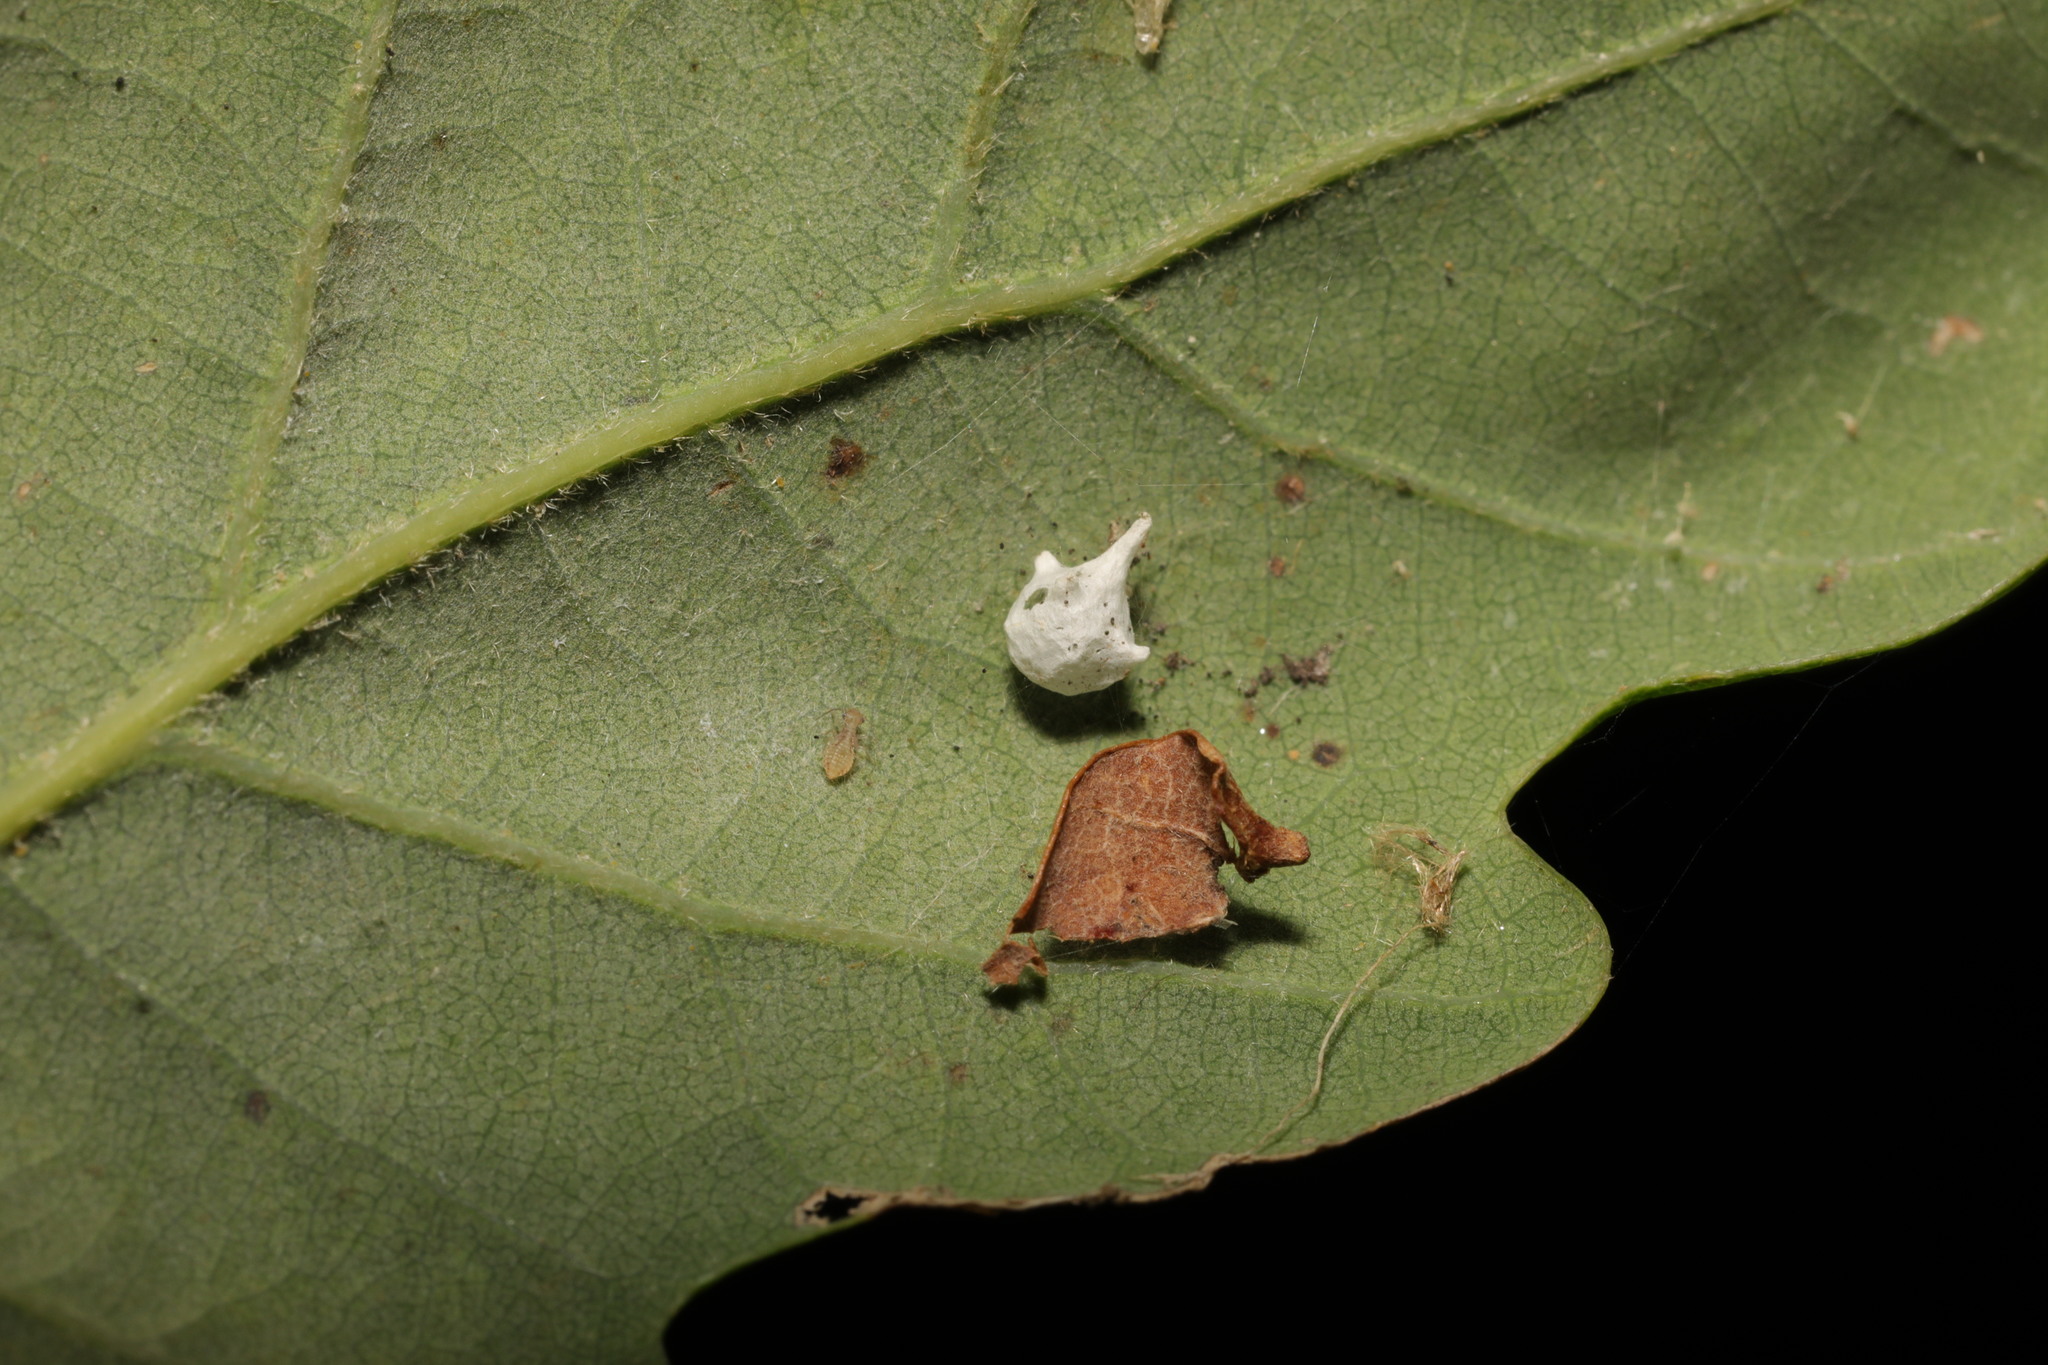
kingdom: Animalia
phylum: Arthropoda
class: Arachnida
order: Araneae
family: Theridiidae
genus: Paidiscura
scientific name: Paidiscura pallens
